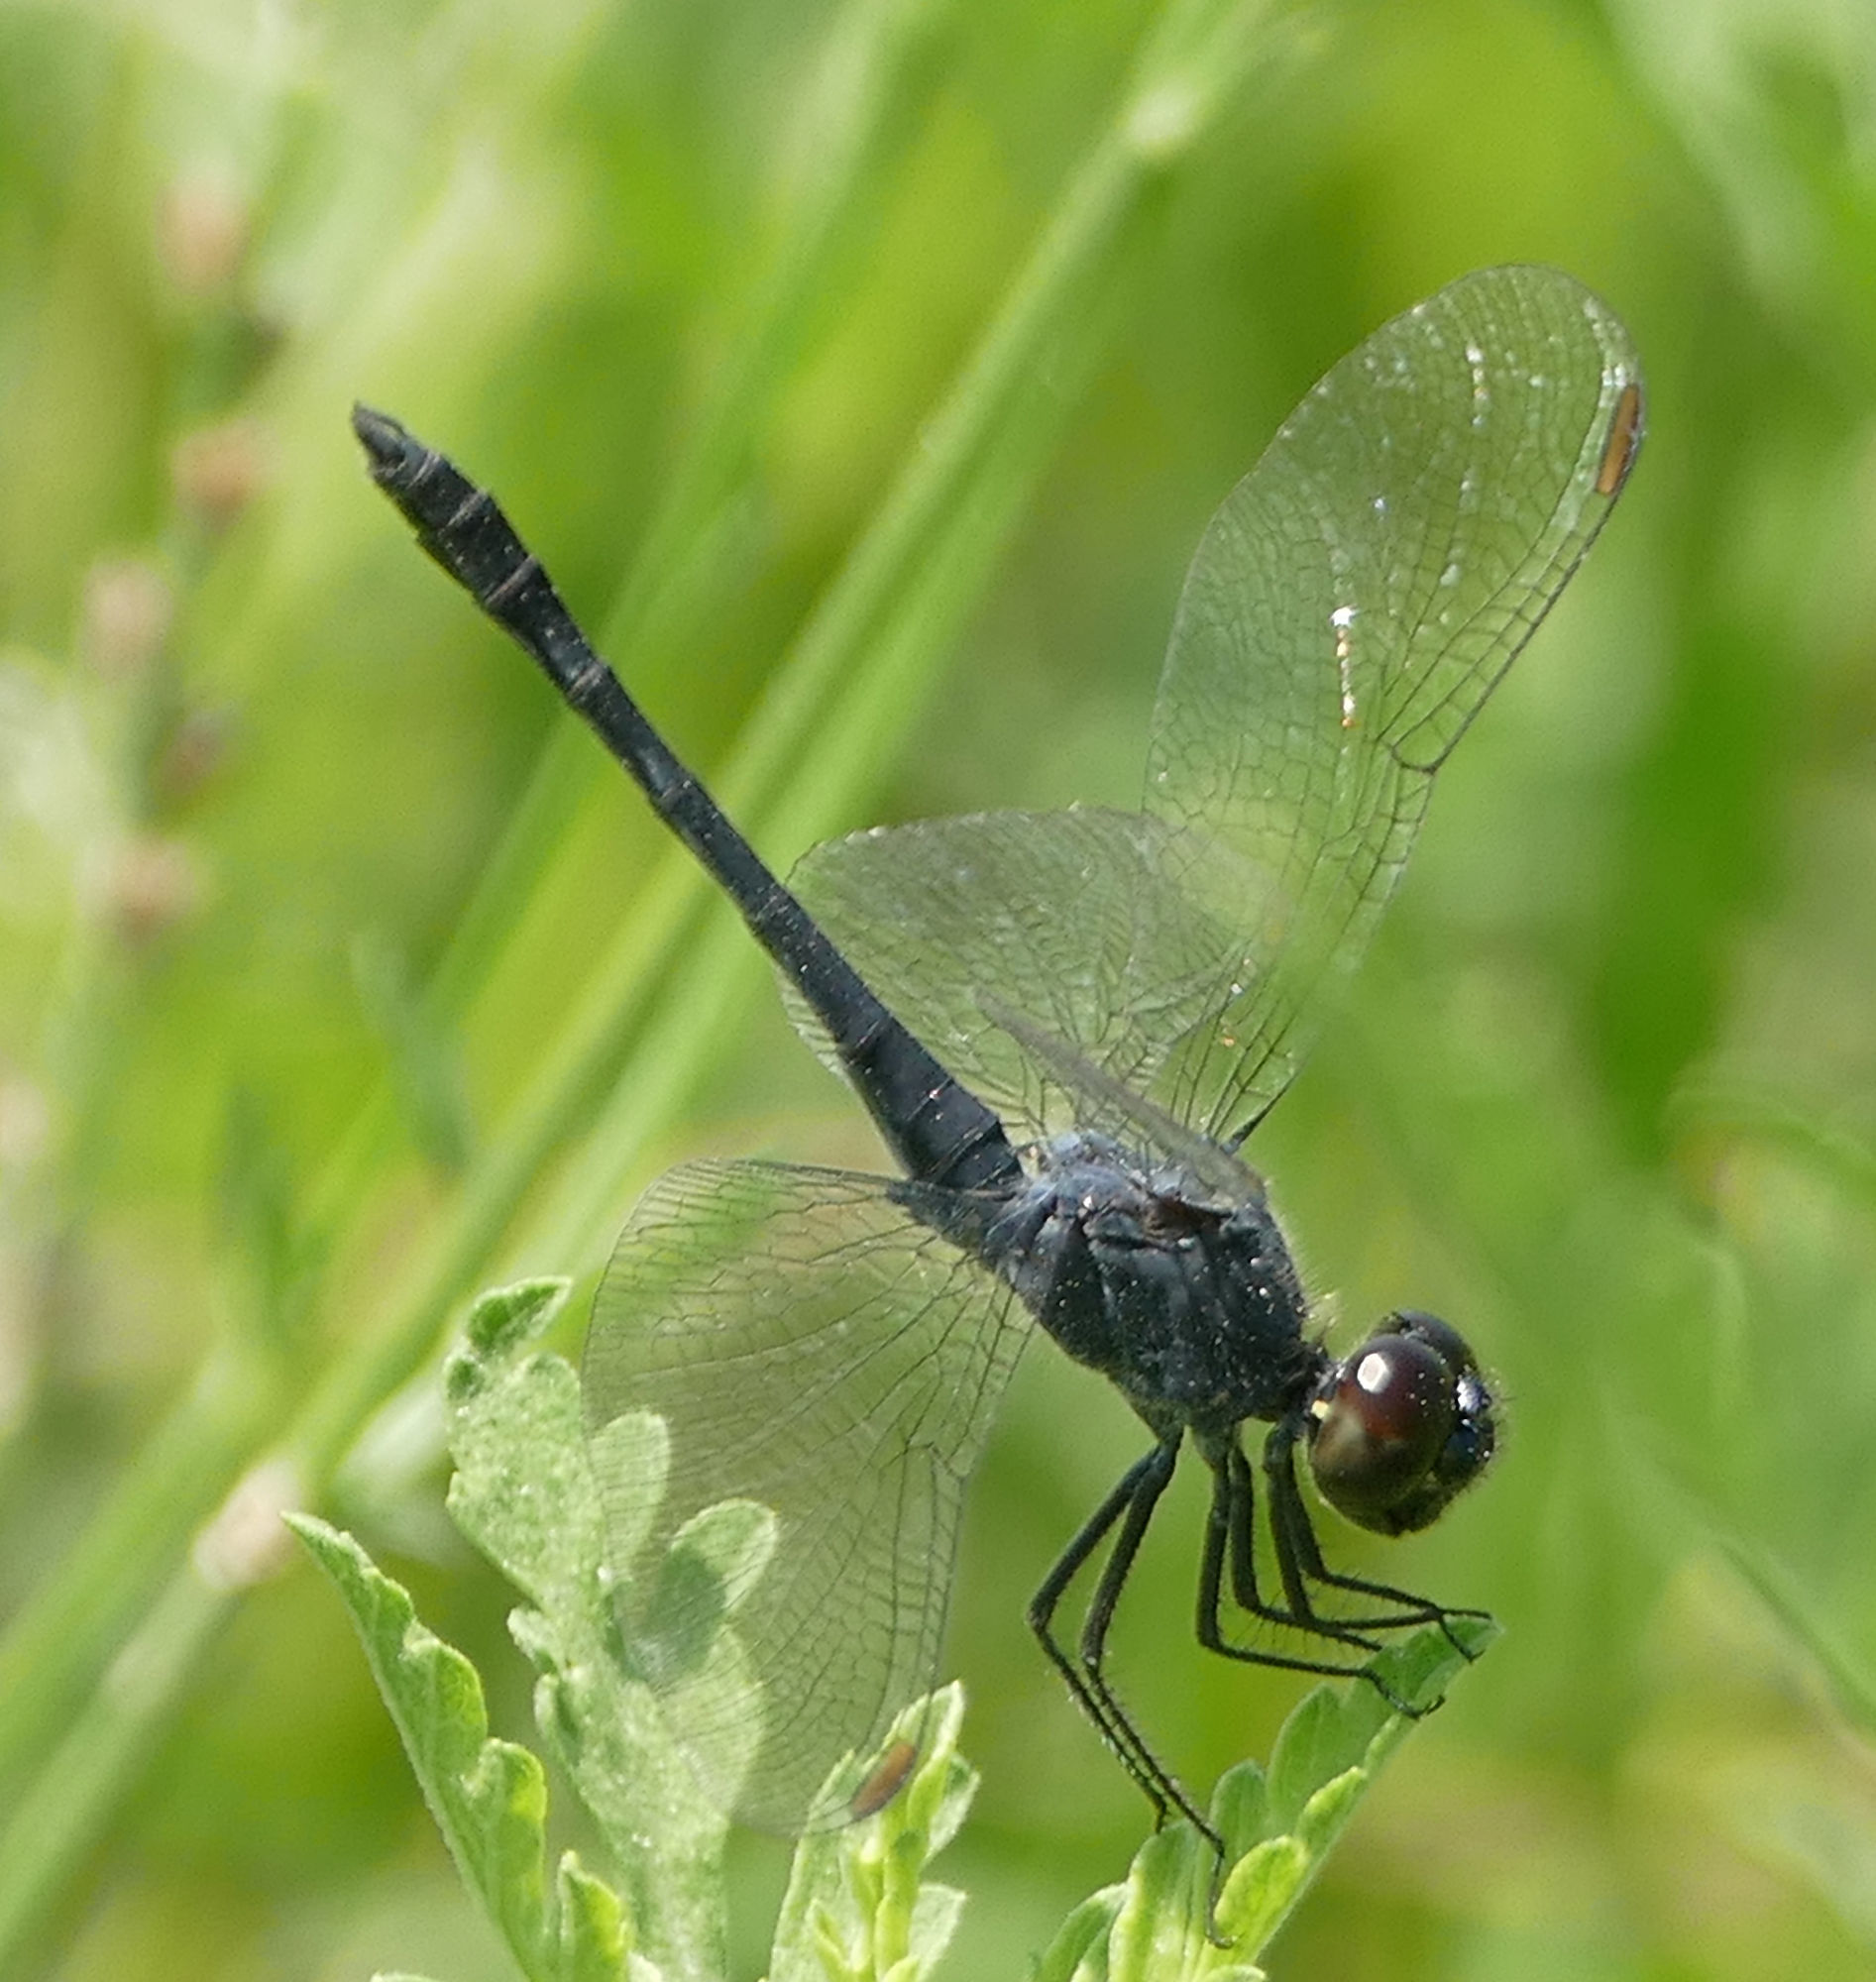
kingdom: Animalia
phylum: Arthropoda
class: Insecta
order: Odonata
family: Libellulidae
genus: Erythrodiplax
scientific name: Erythrodiplax berenice
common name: Seaside dragonlet
